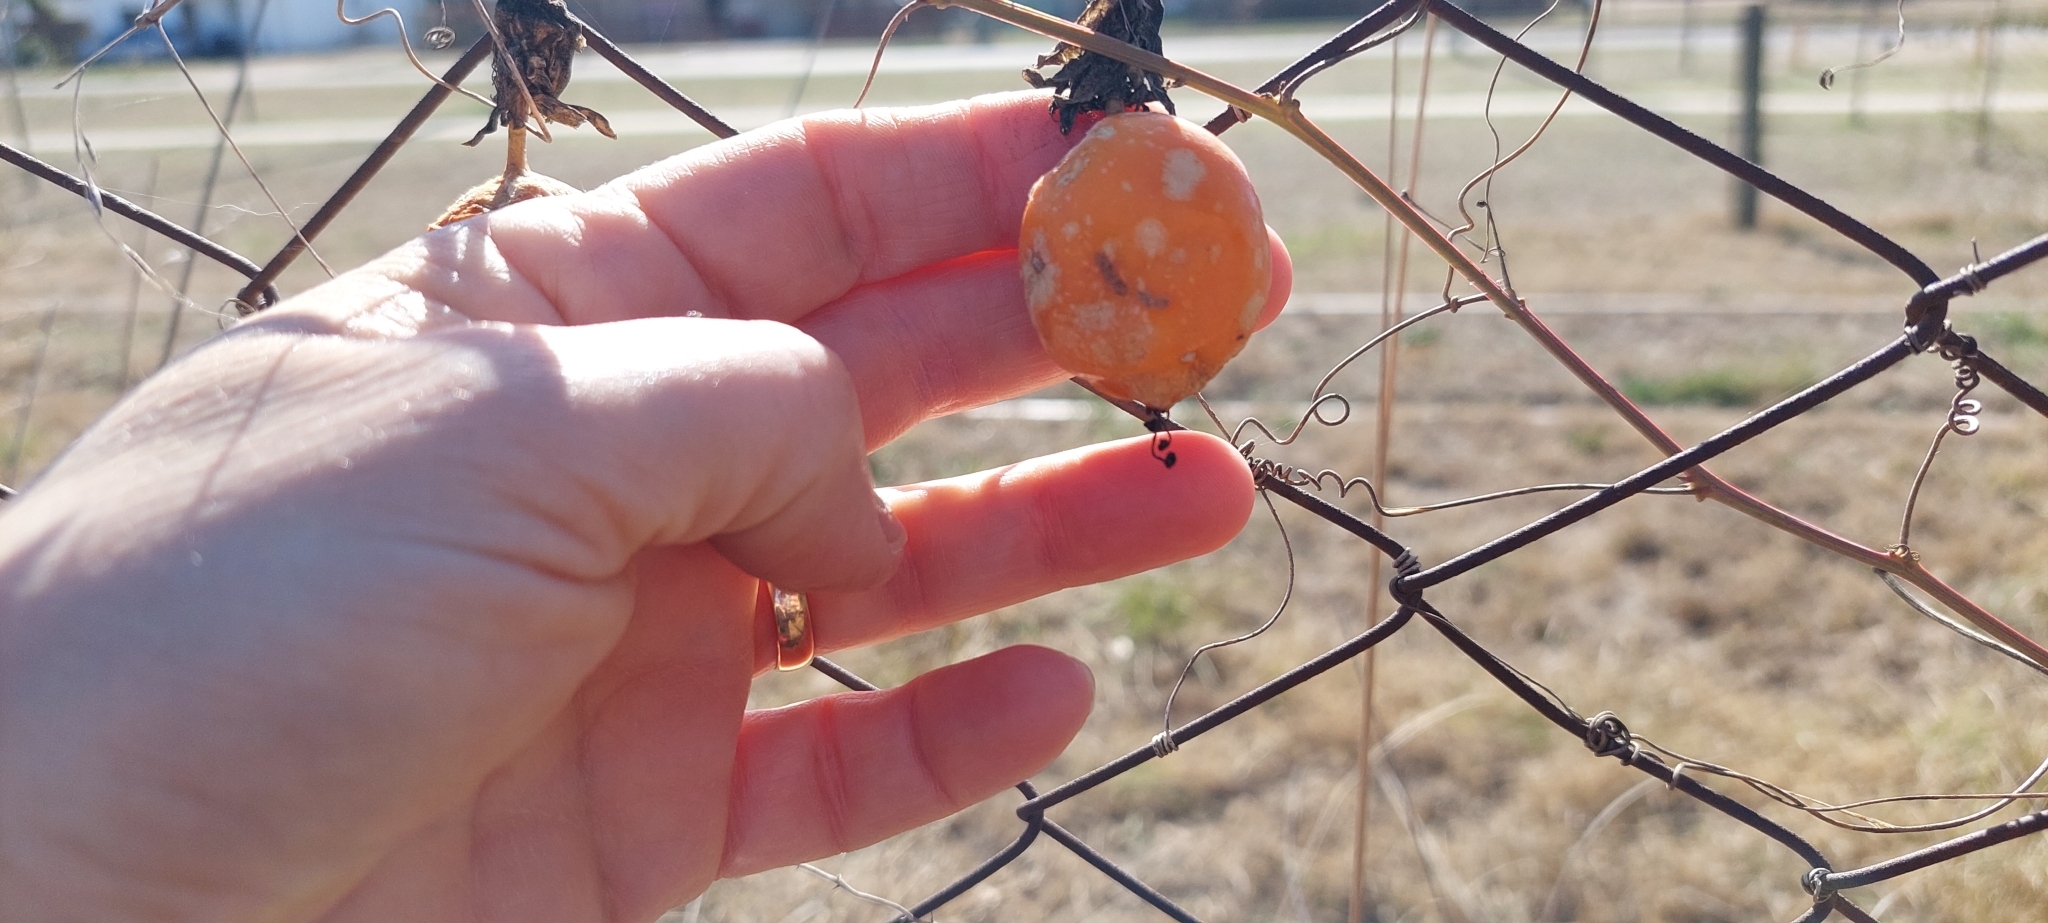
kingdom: Plantae
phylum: Tracheophyta
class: Magnoliopsida
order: Malpighiales
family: Passifloraceae
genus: Passiflora
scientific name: Passiflora caerulea
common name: Blue passionflower
